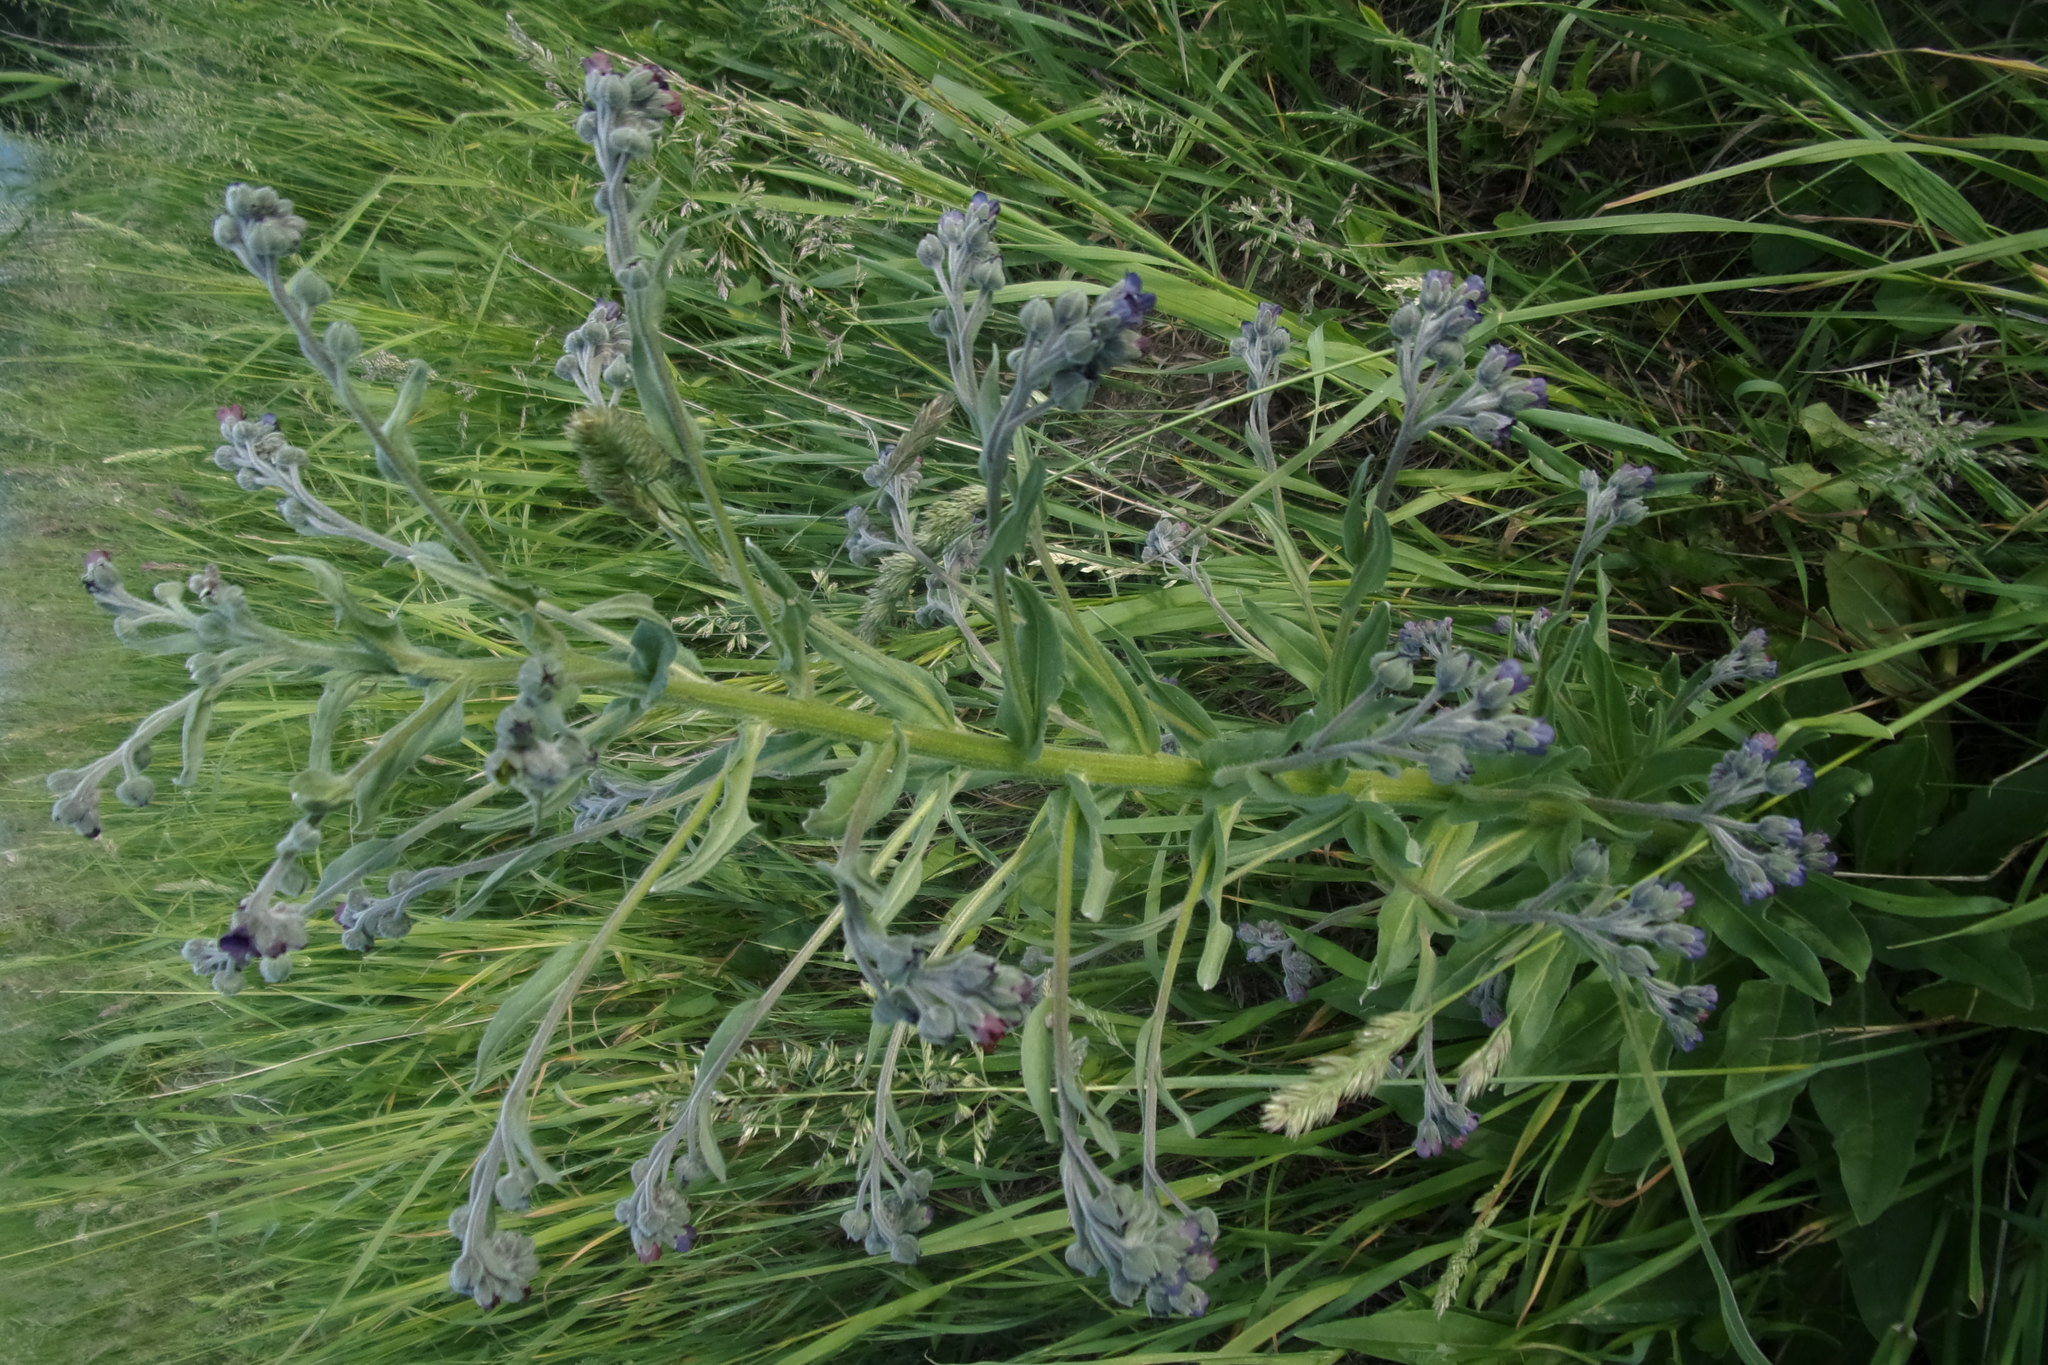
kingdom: Plantae
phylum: Tracheophyta
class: Magnoliopsida
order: Boraginales
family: Boraginaceae
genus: Cynoglossum
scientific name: Cynoglossum officinale
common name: Hound's-tongue
